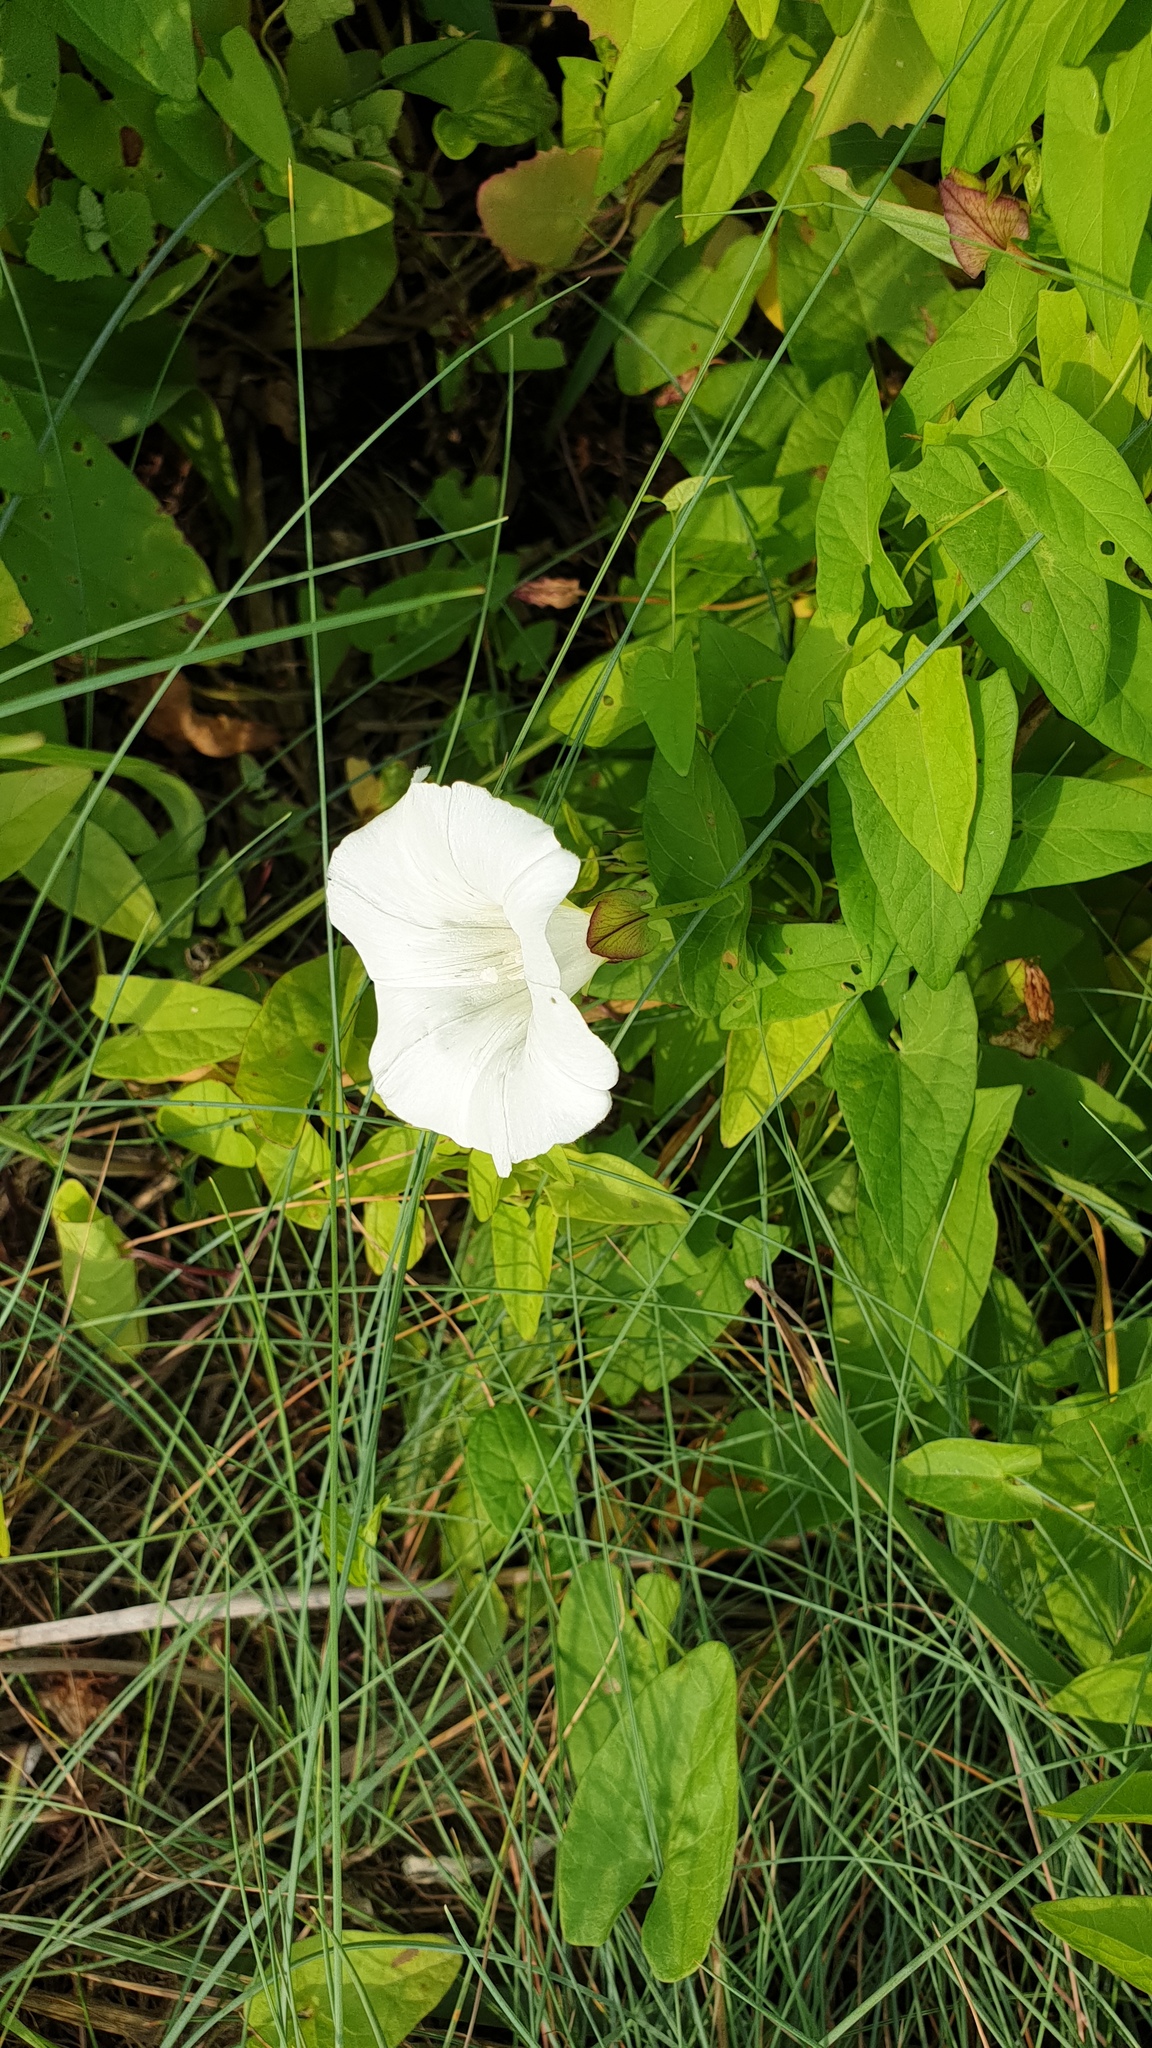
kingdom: Plantae
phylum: Tracheophyta
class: Magnoliopsida
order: Solanales
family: Convolvulaceae
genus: Calystegia
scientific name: Calystegia sepium
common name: Hedge bindweed
